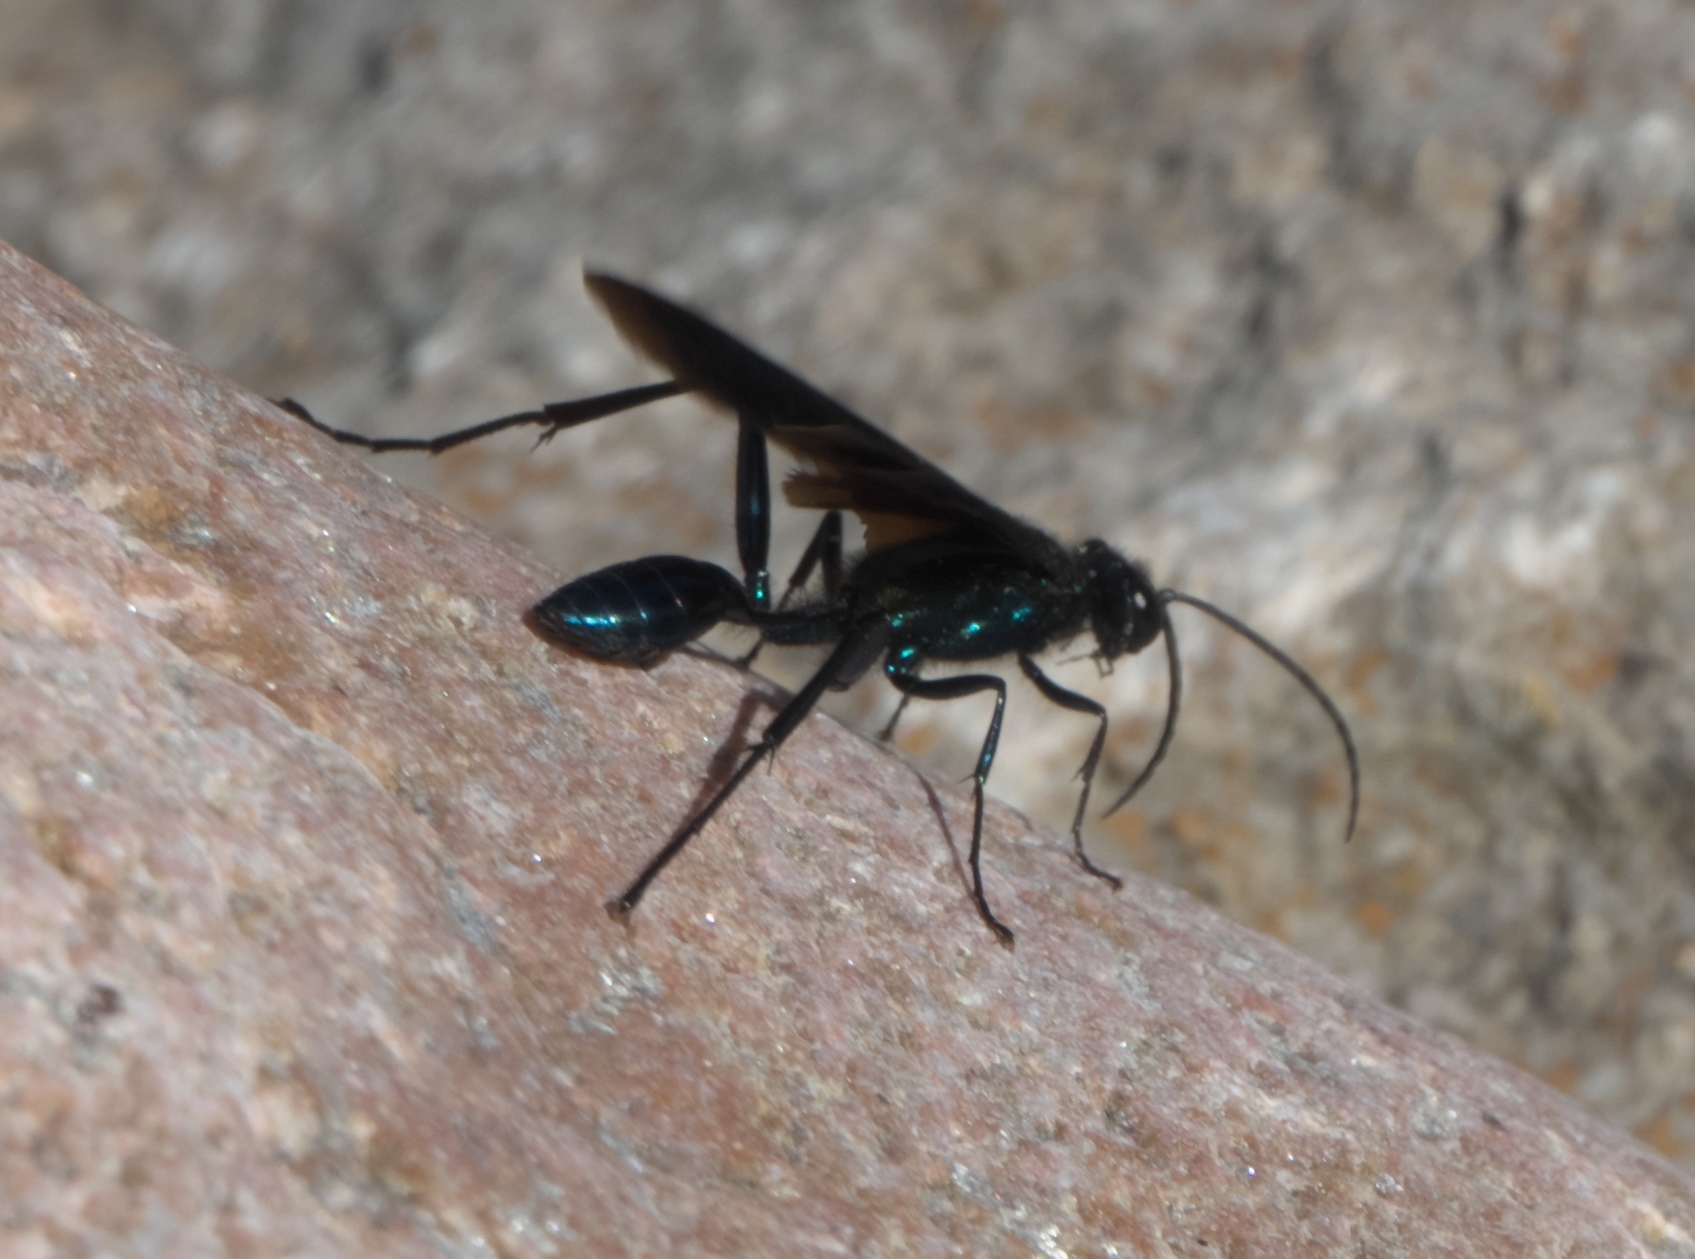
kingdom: Animalia
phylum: Arthropoda
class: Insecta
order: Hymenoptera
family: Sphecidae
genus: Chalybion
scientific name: Chalybion californicum
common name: Mud dauber
